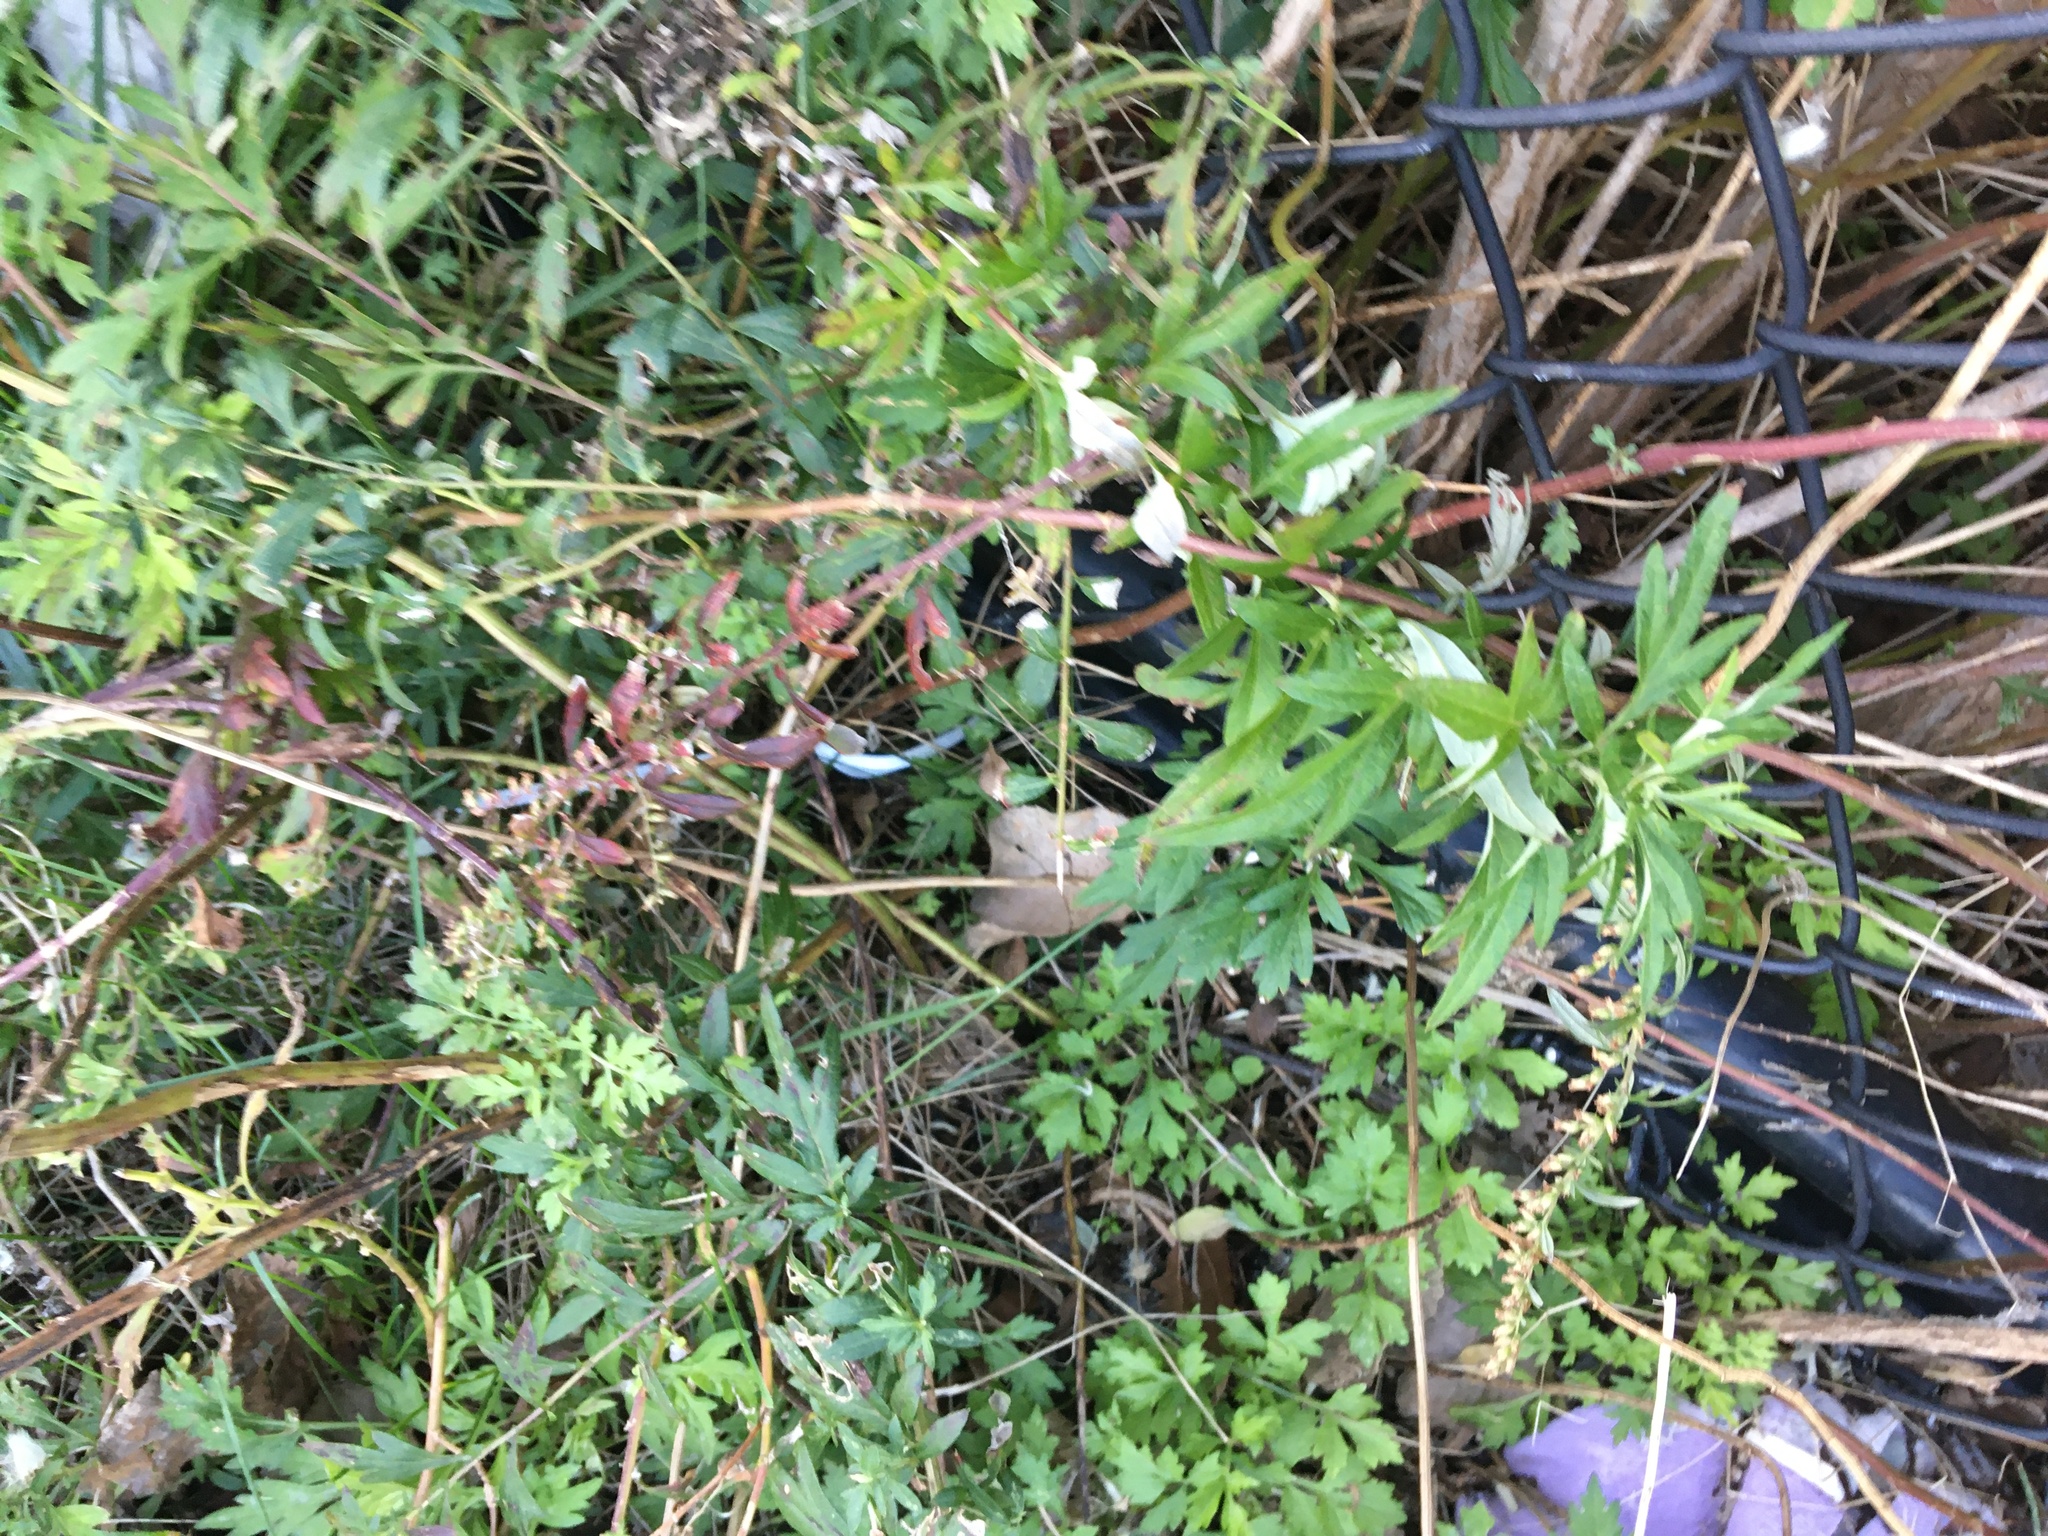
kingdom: Plantae
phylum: Tracheophyta
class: Magnoliopsida
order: Asterales
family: Asteraceae
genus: Artemisia
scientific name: Artemisia vulgaris
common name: Mugwort
